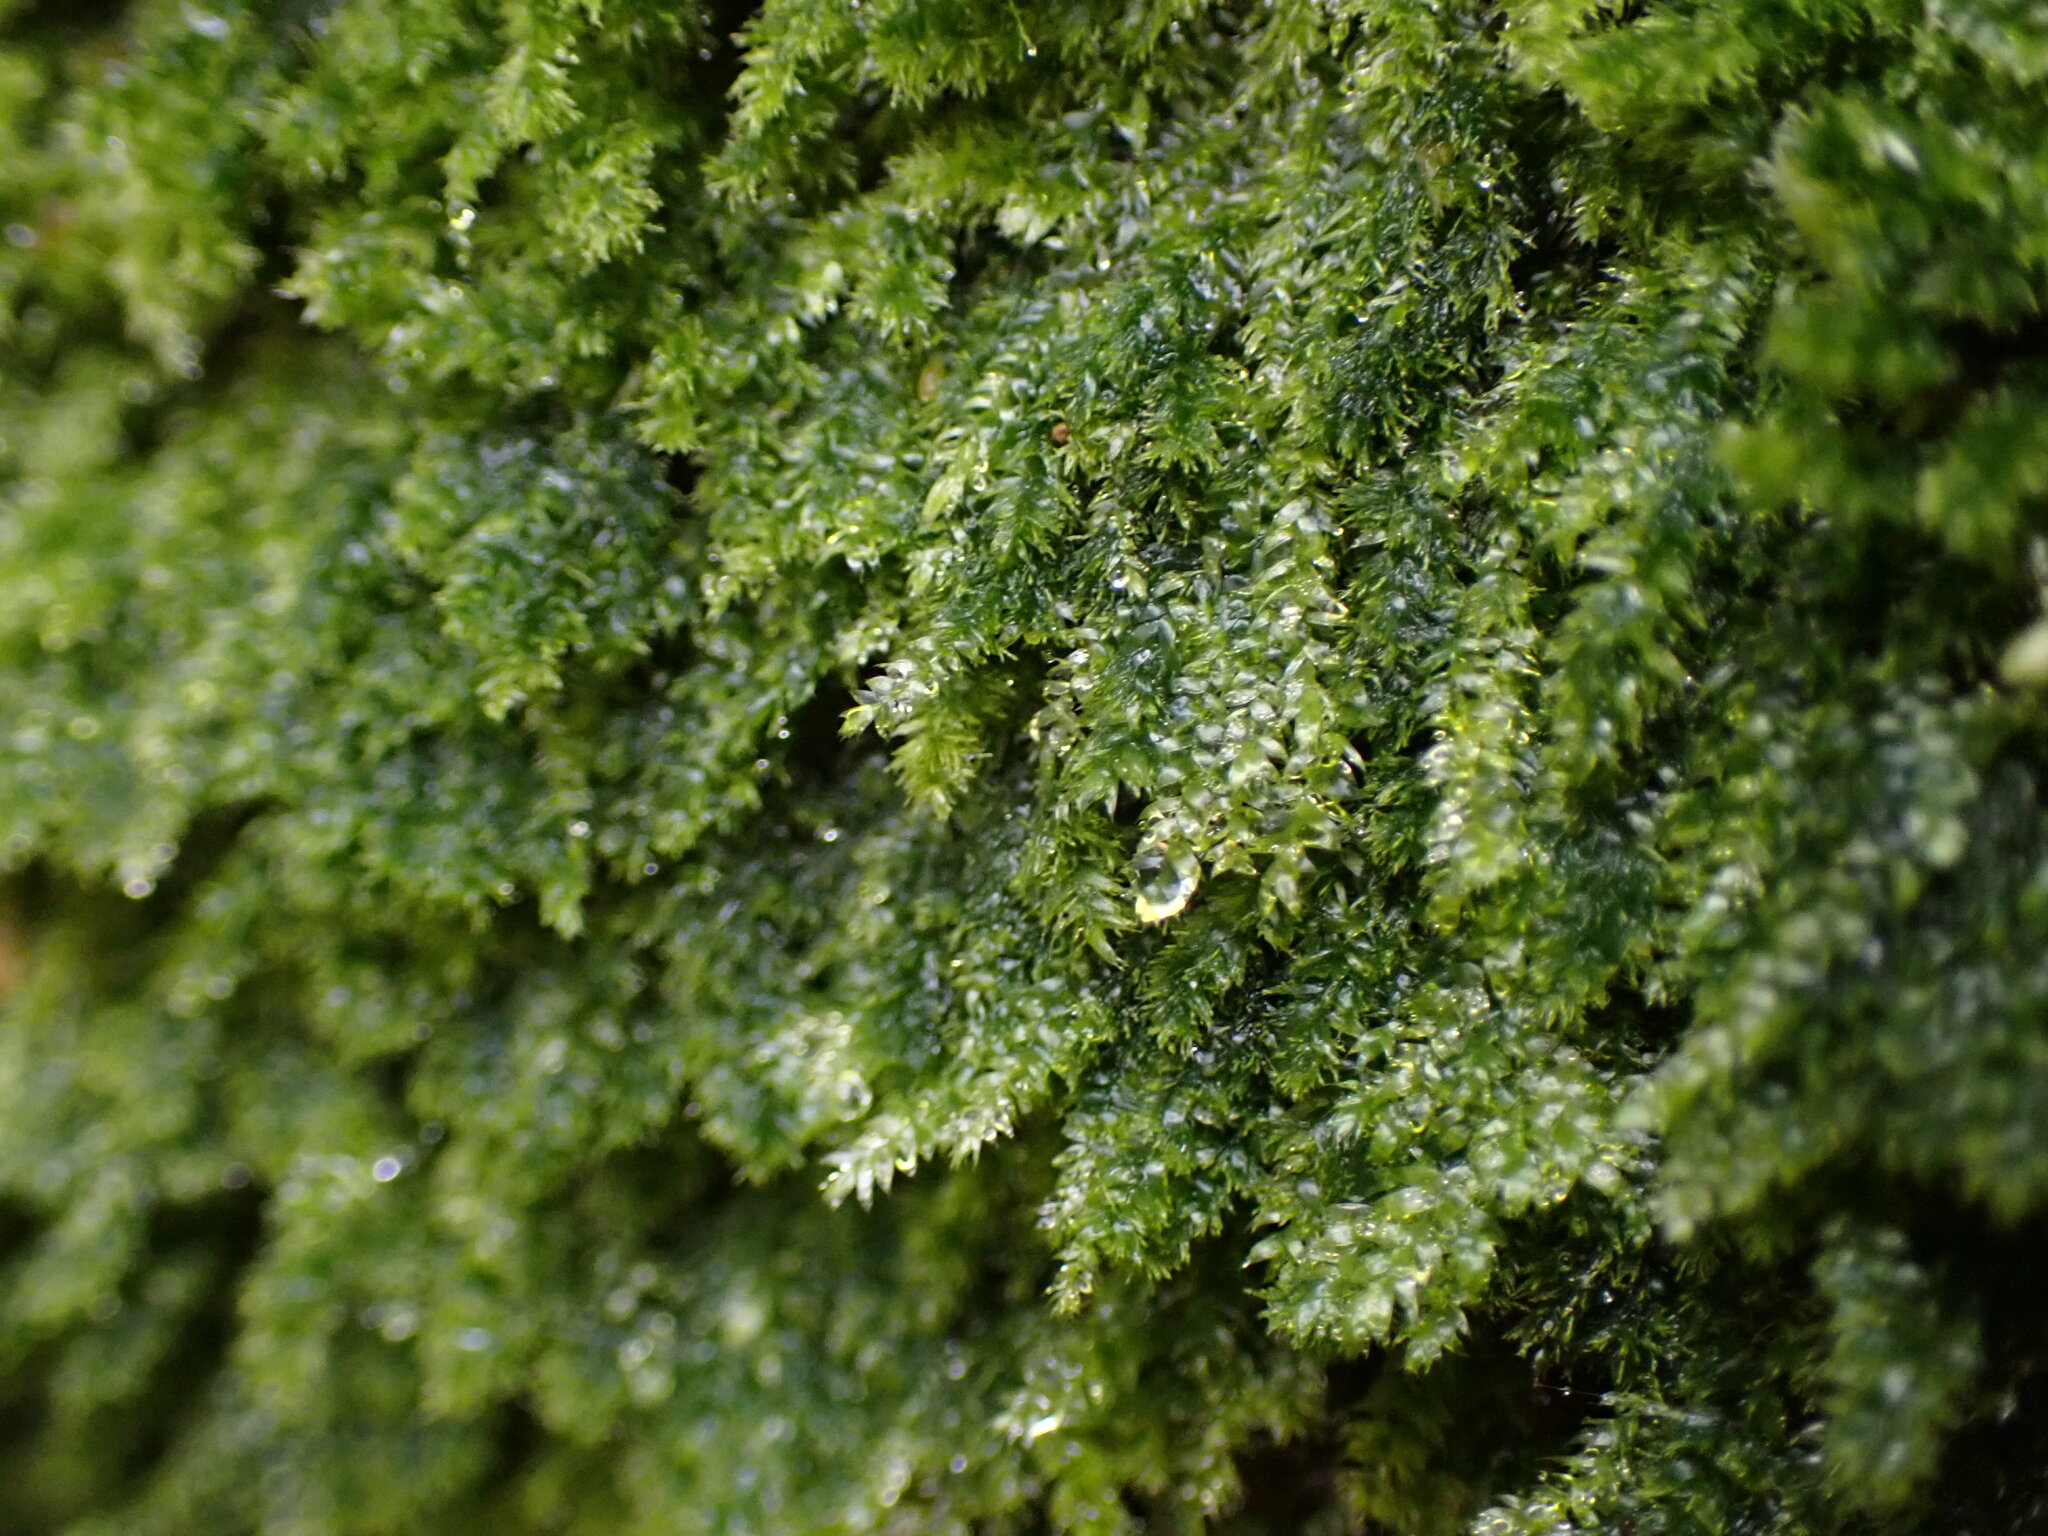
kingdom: Plantae
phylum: Bryophyta
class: Bryopsida
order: Hypnales
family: Plagiotheciaceae
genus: Pseudotaxiphyllum
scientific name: Pseudotaxiphyllum elegans
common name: Elegant silk moss
